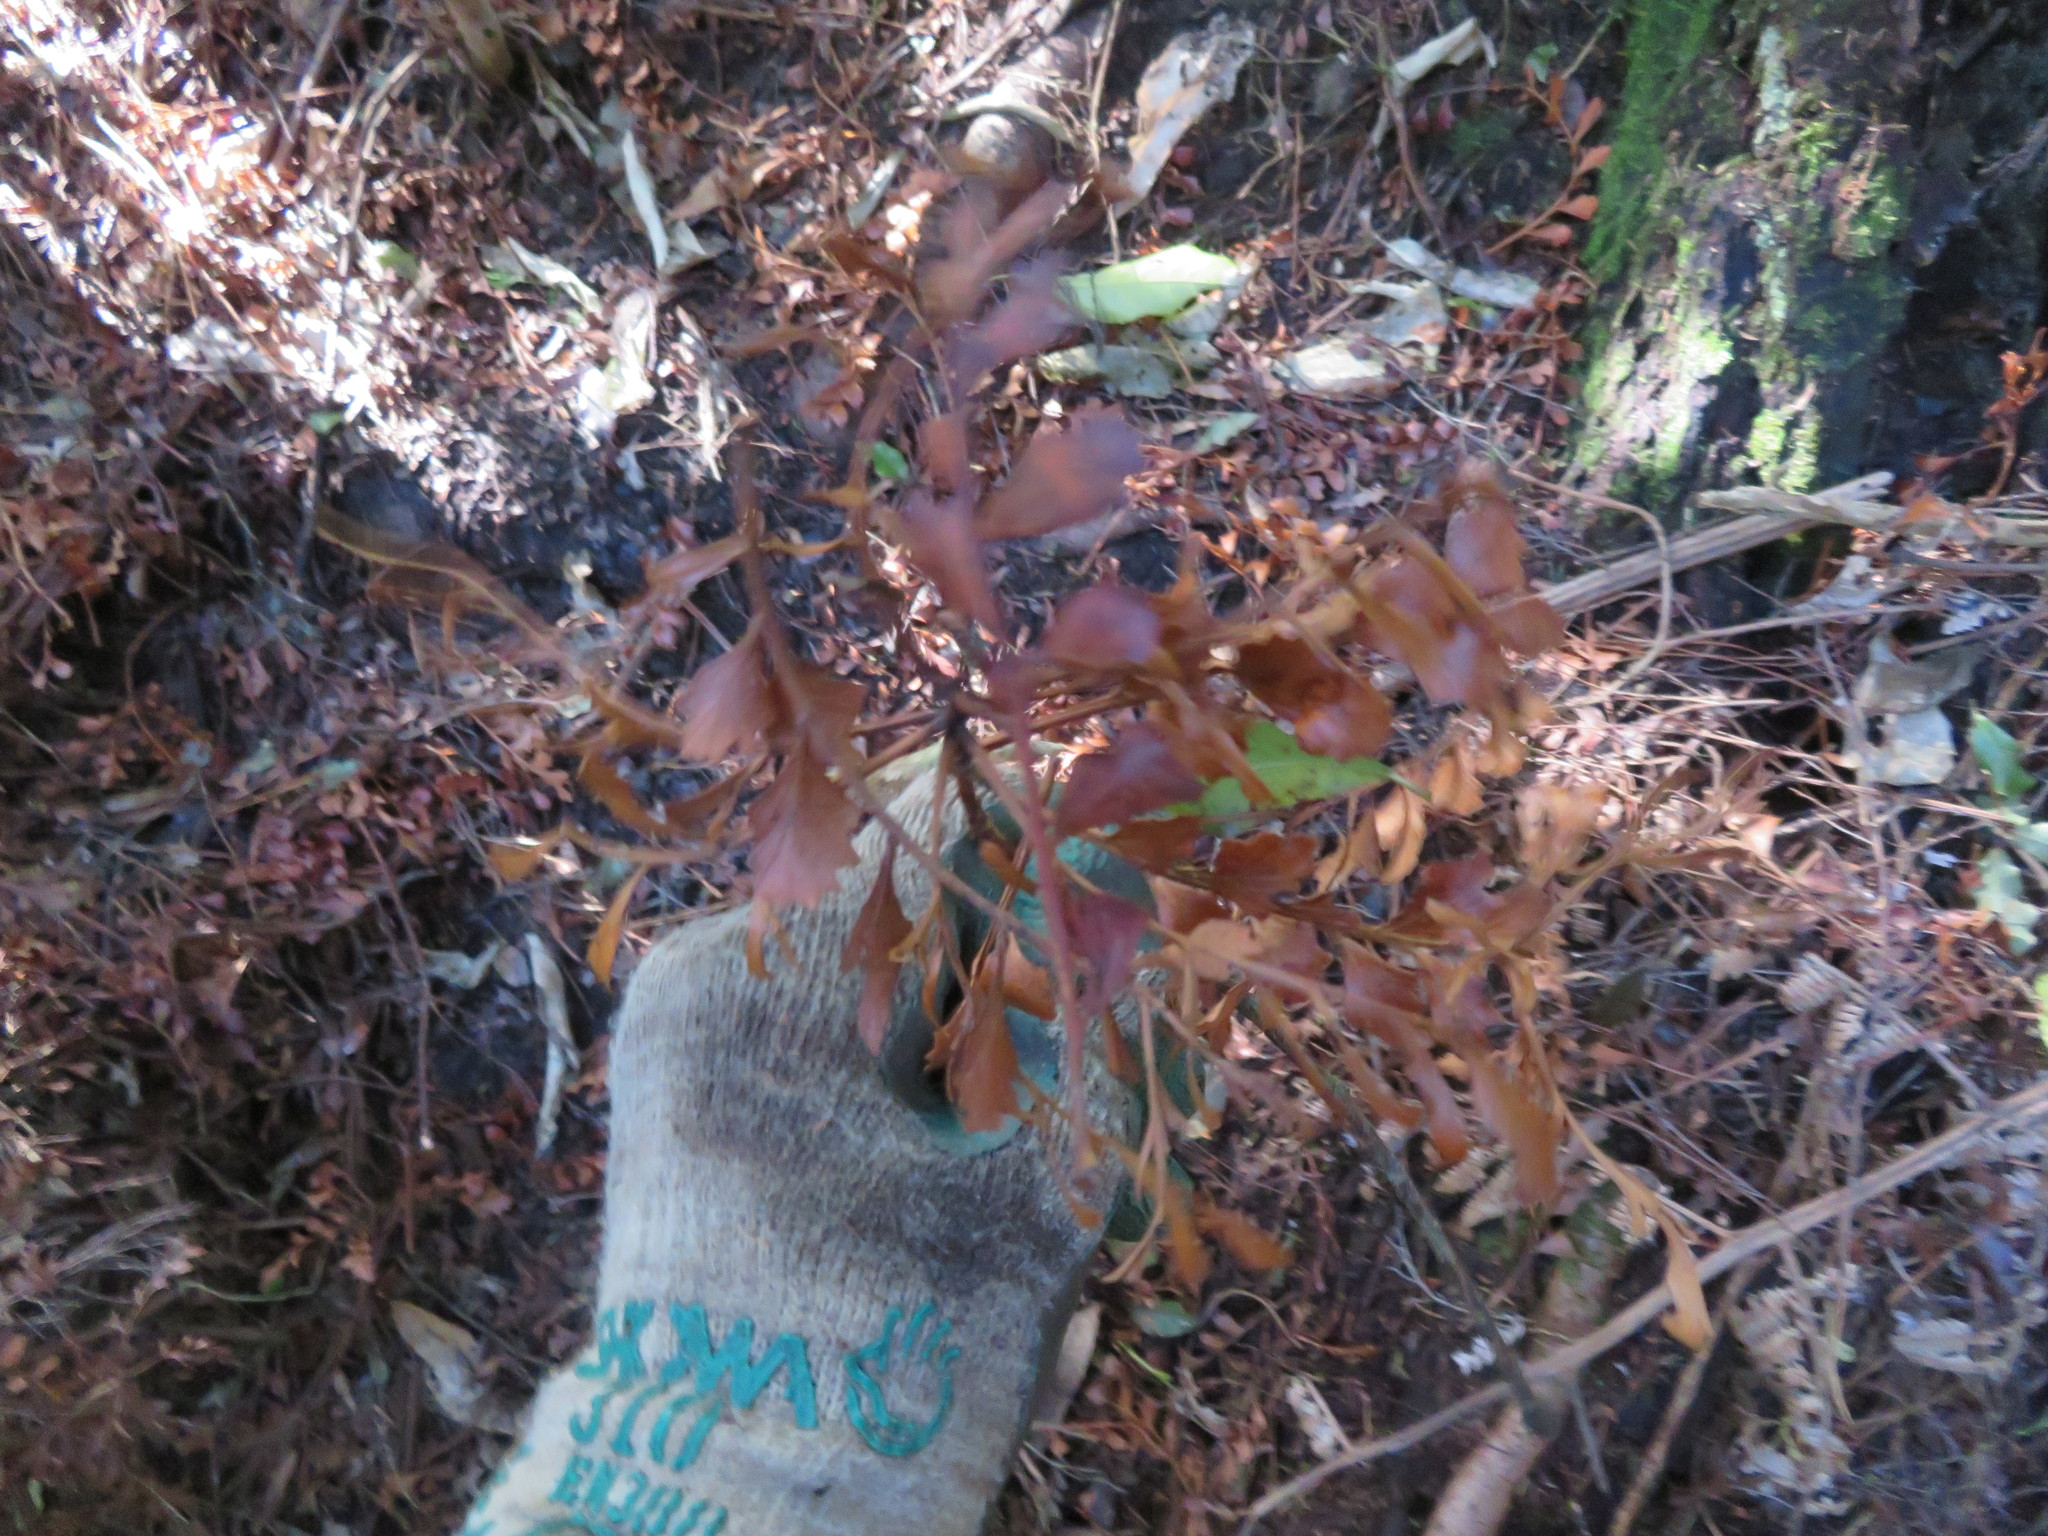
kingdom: Plantae
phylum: Tracheophyta
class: Pinopsida
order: Pinales
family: Phyllocladaceae
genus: Phyllocladus
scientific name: Phyllocladus trichomanoides
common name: Celery pine
